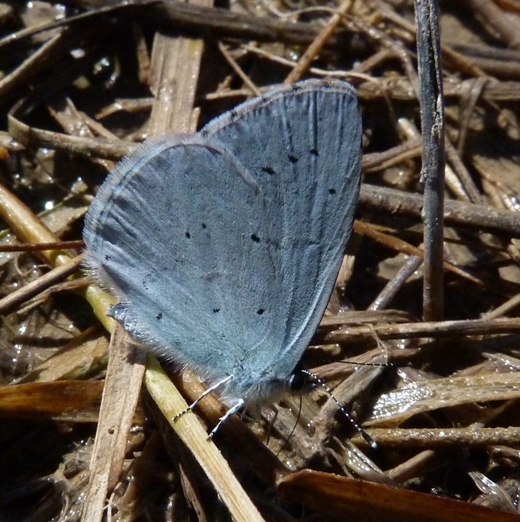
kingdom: Animalia
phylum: Arthropoda
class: Insecta
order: Lepidoptera
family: Lycaenidae
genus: Celastrina
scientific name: Celastrina argiolus
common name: Holly blue
